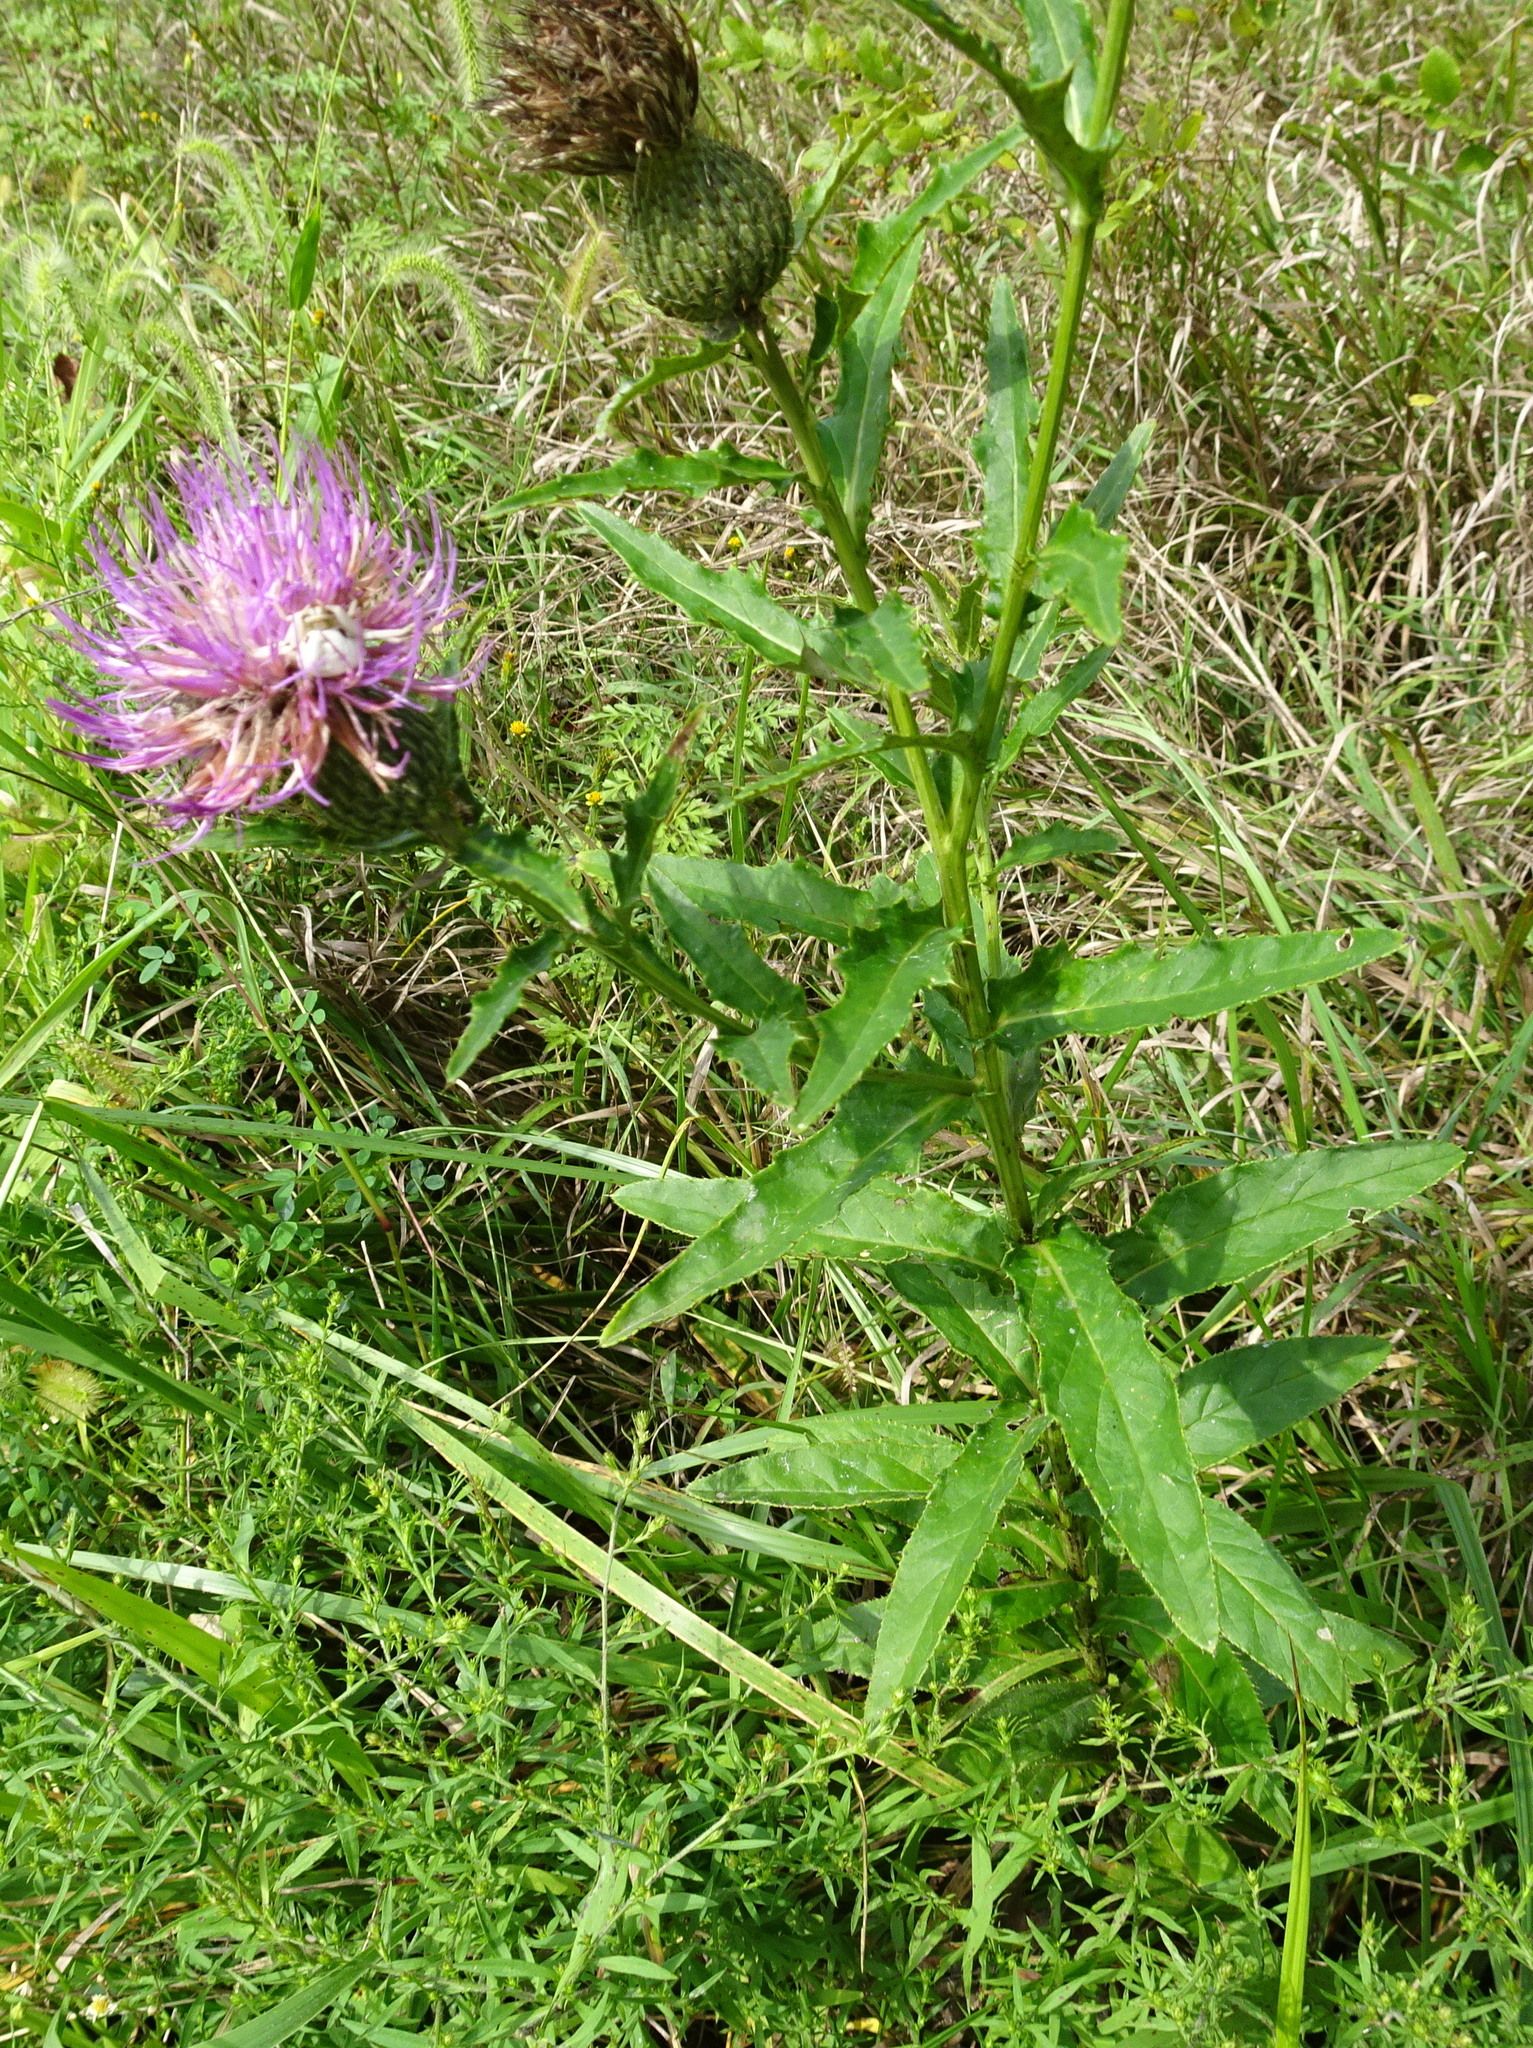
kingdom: Plantae
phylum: Tracheophyta
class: Magnoliopsida
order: Asterales
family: Asteraceae
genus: Cirsium
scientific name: Cirsium altissimum
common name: Roadside thistle
